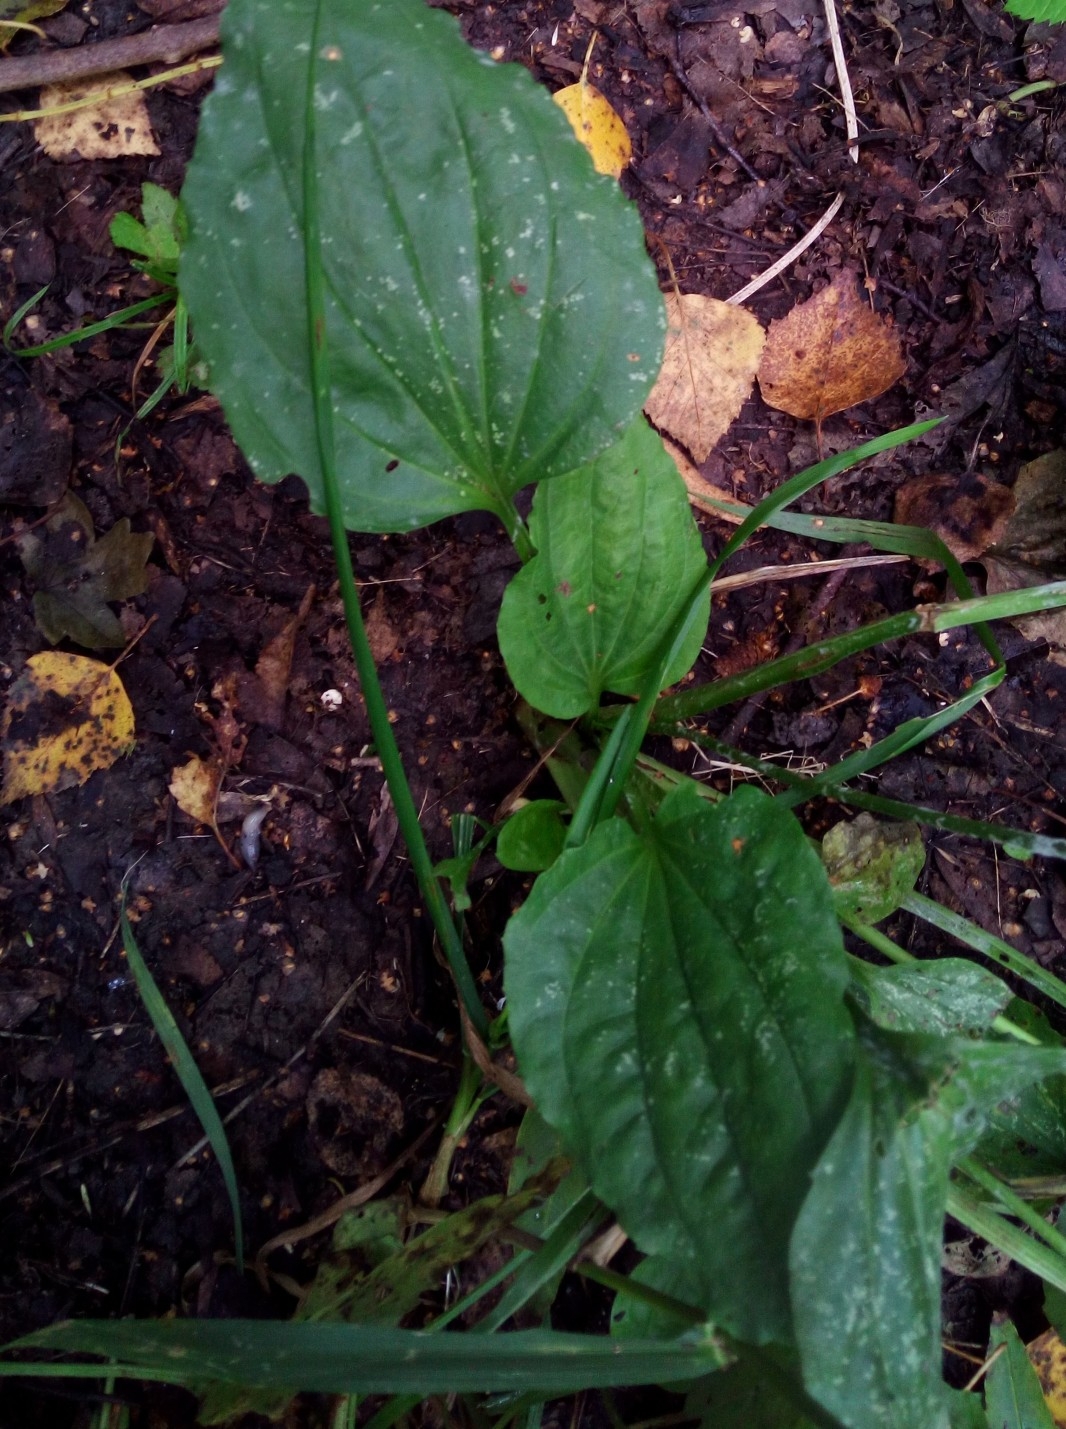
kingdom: Plantae
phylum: Tracheophyta
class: Magnoliopsida
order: Lamiales
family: Plantaginaceae
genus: Plantago
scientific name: Plantago major
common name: Common plantain
